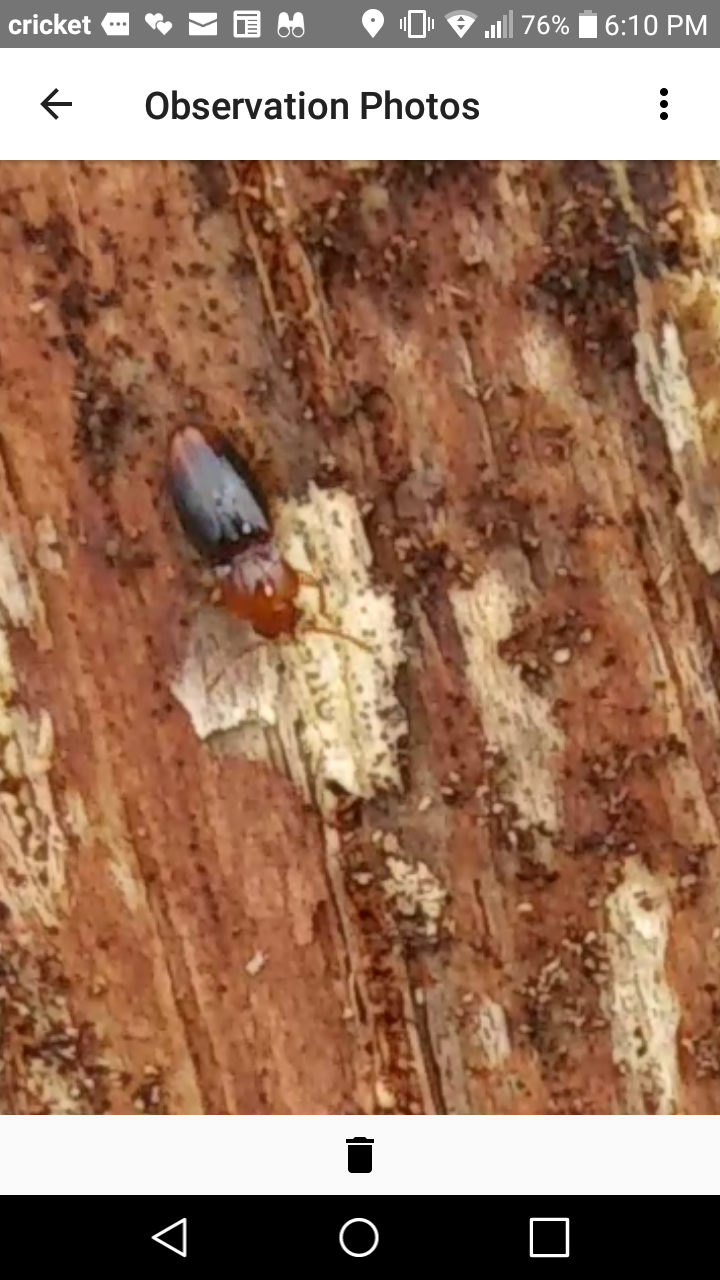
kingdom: Animalia
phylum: Arthropoda
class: Insecta
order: Coleoptera
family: Endomychidae
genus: Rhanidea
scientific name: Rhanidea unicolor
